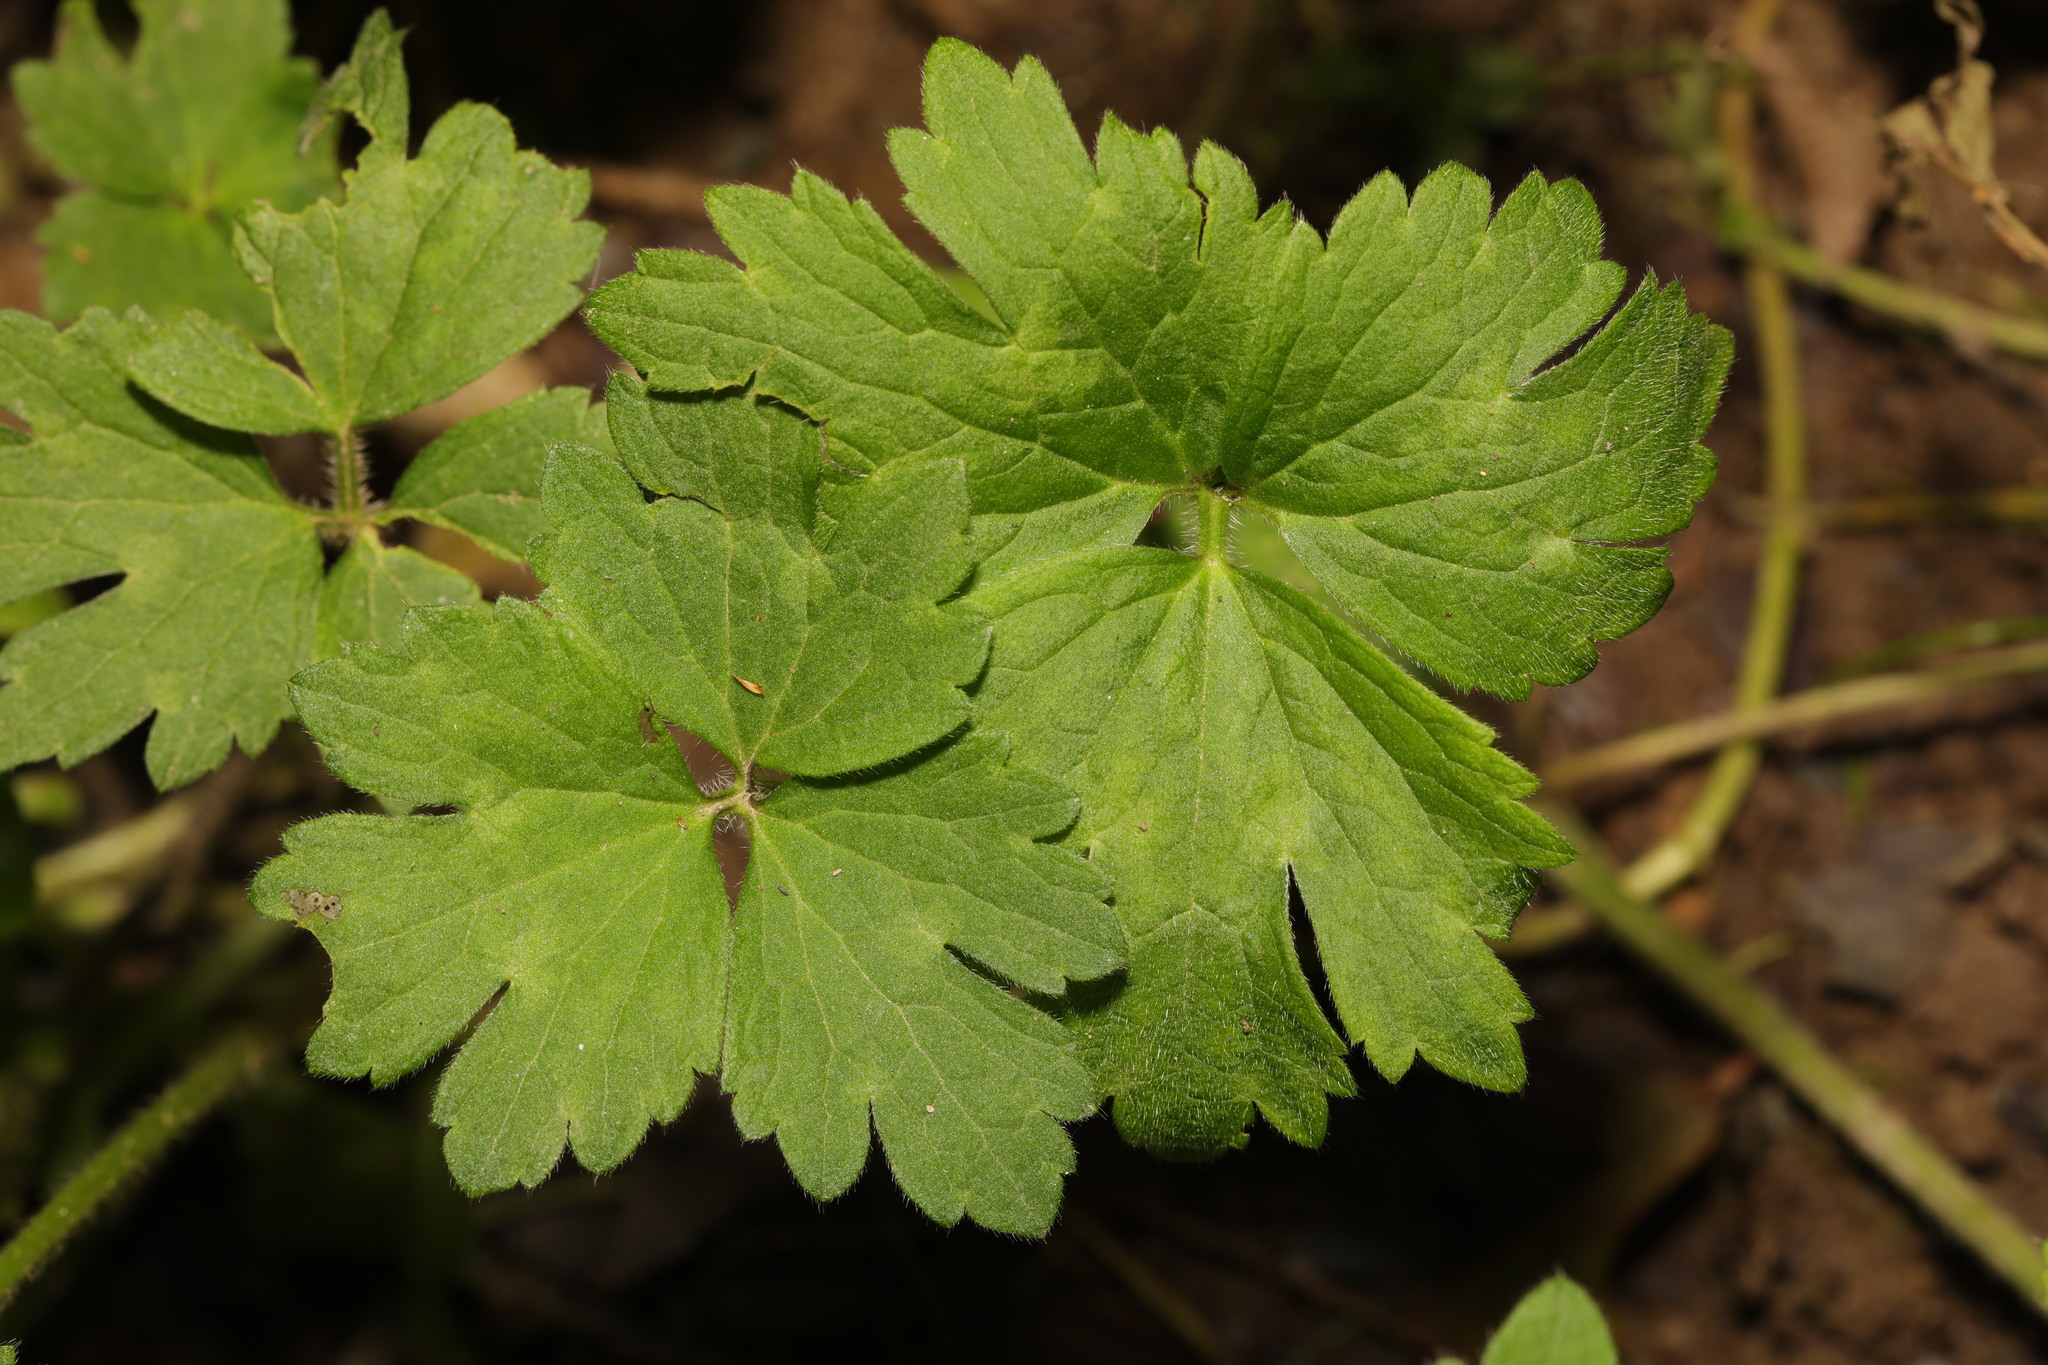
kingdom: Plantae
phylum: Tracheophyta
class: Magnoliopsida
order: Ranunculales
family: Ranunculaceae
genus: Ranunculus
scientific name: Ranunculus repens
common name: Creeping buttercup
